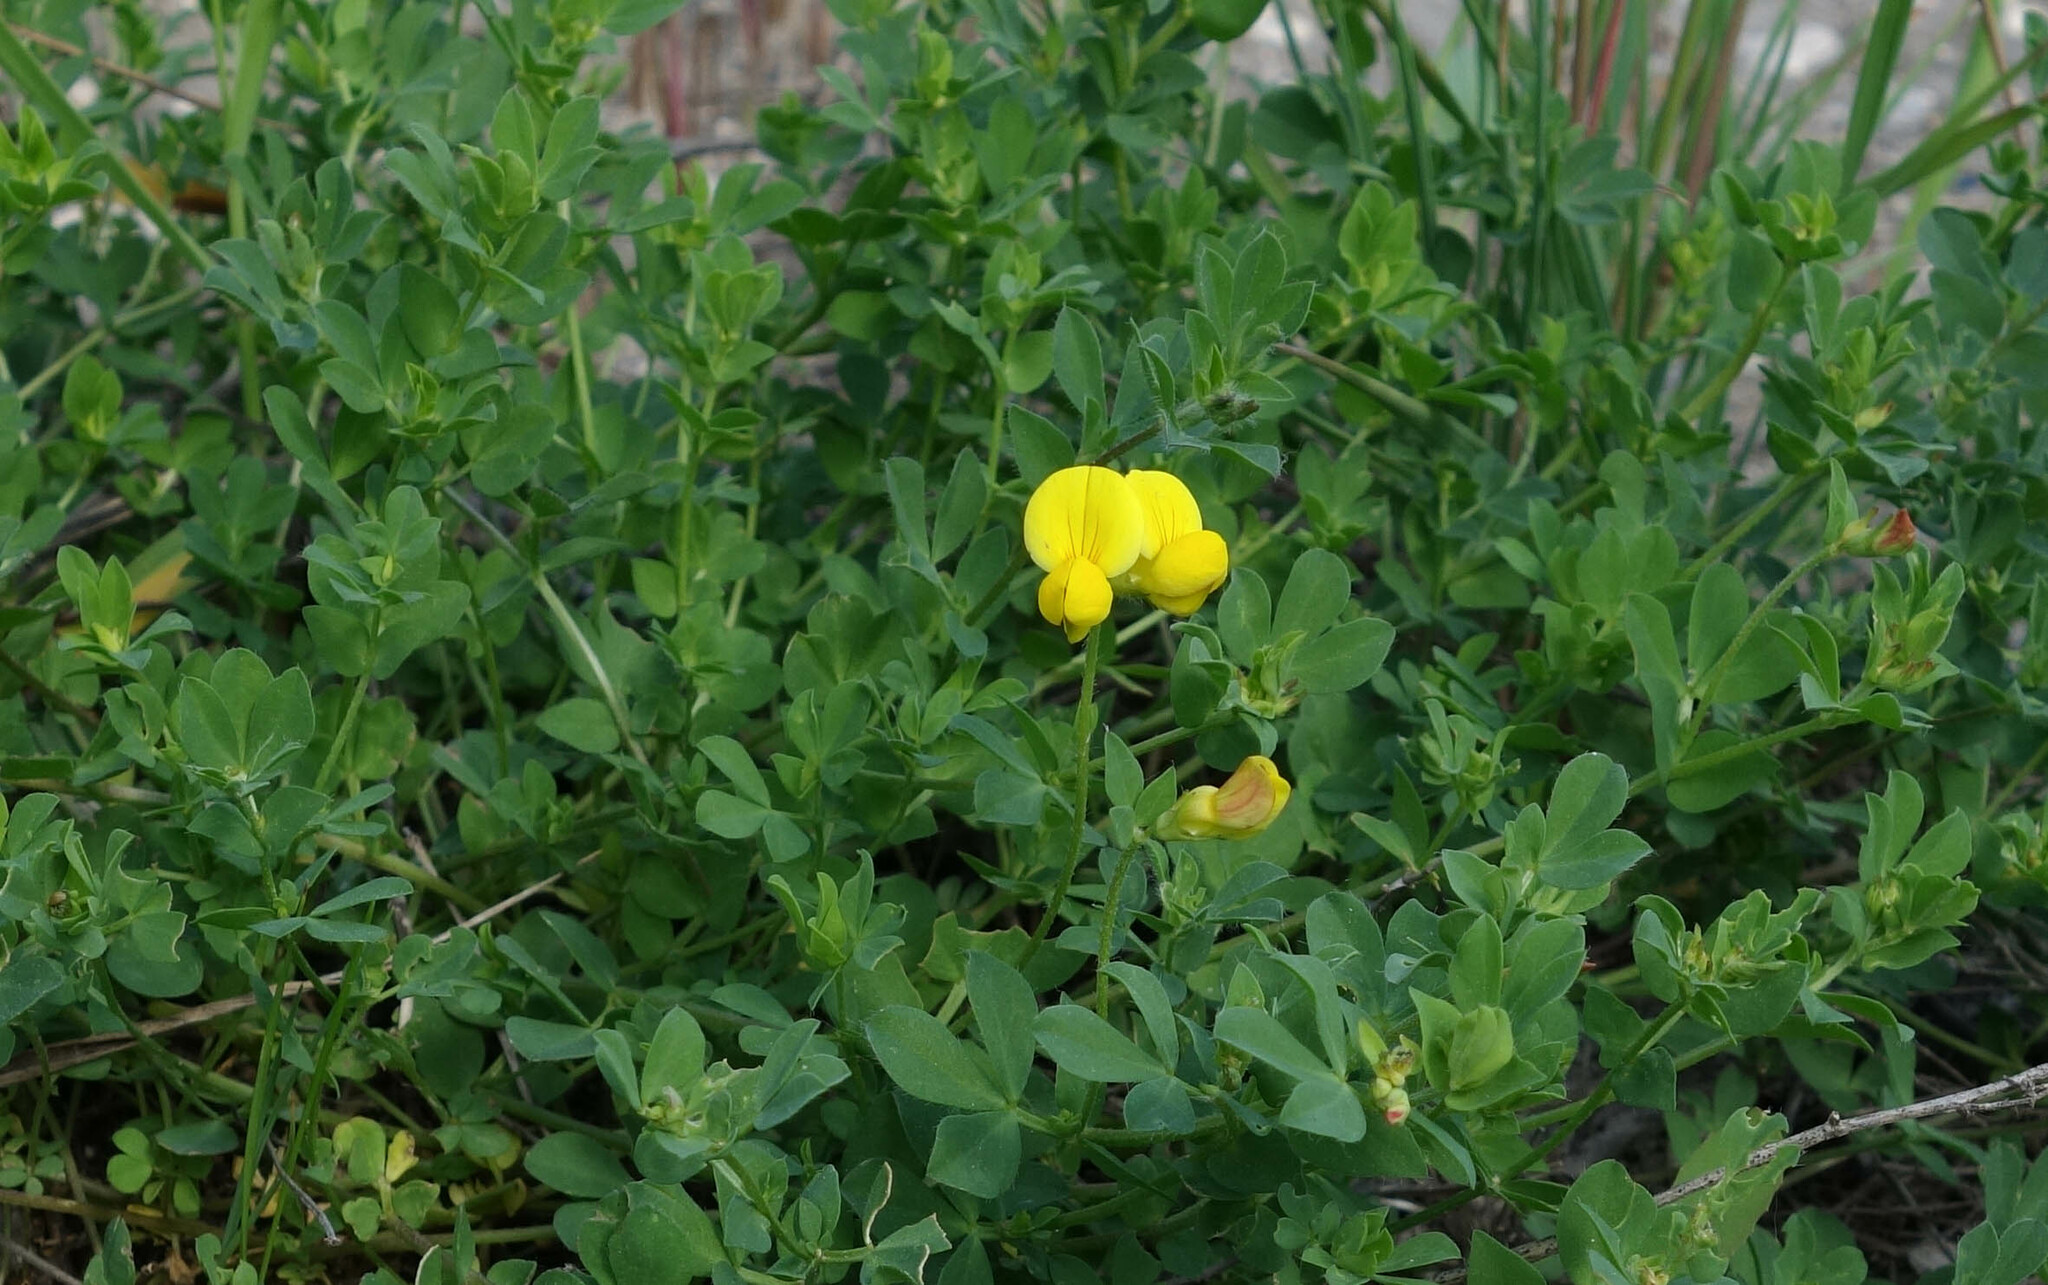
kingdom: Plantae
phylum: Tracheophyta
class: Magnoliopsida
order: Fabales
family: Fabaceae
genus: Lotus
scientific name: Lotus corniculatus
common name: Common bird's-foot-trefoil
